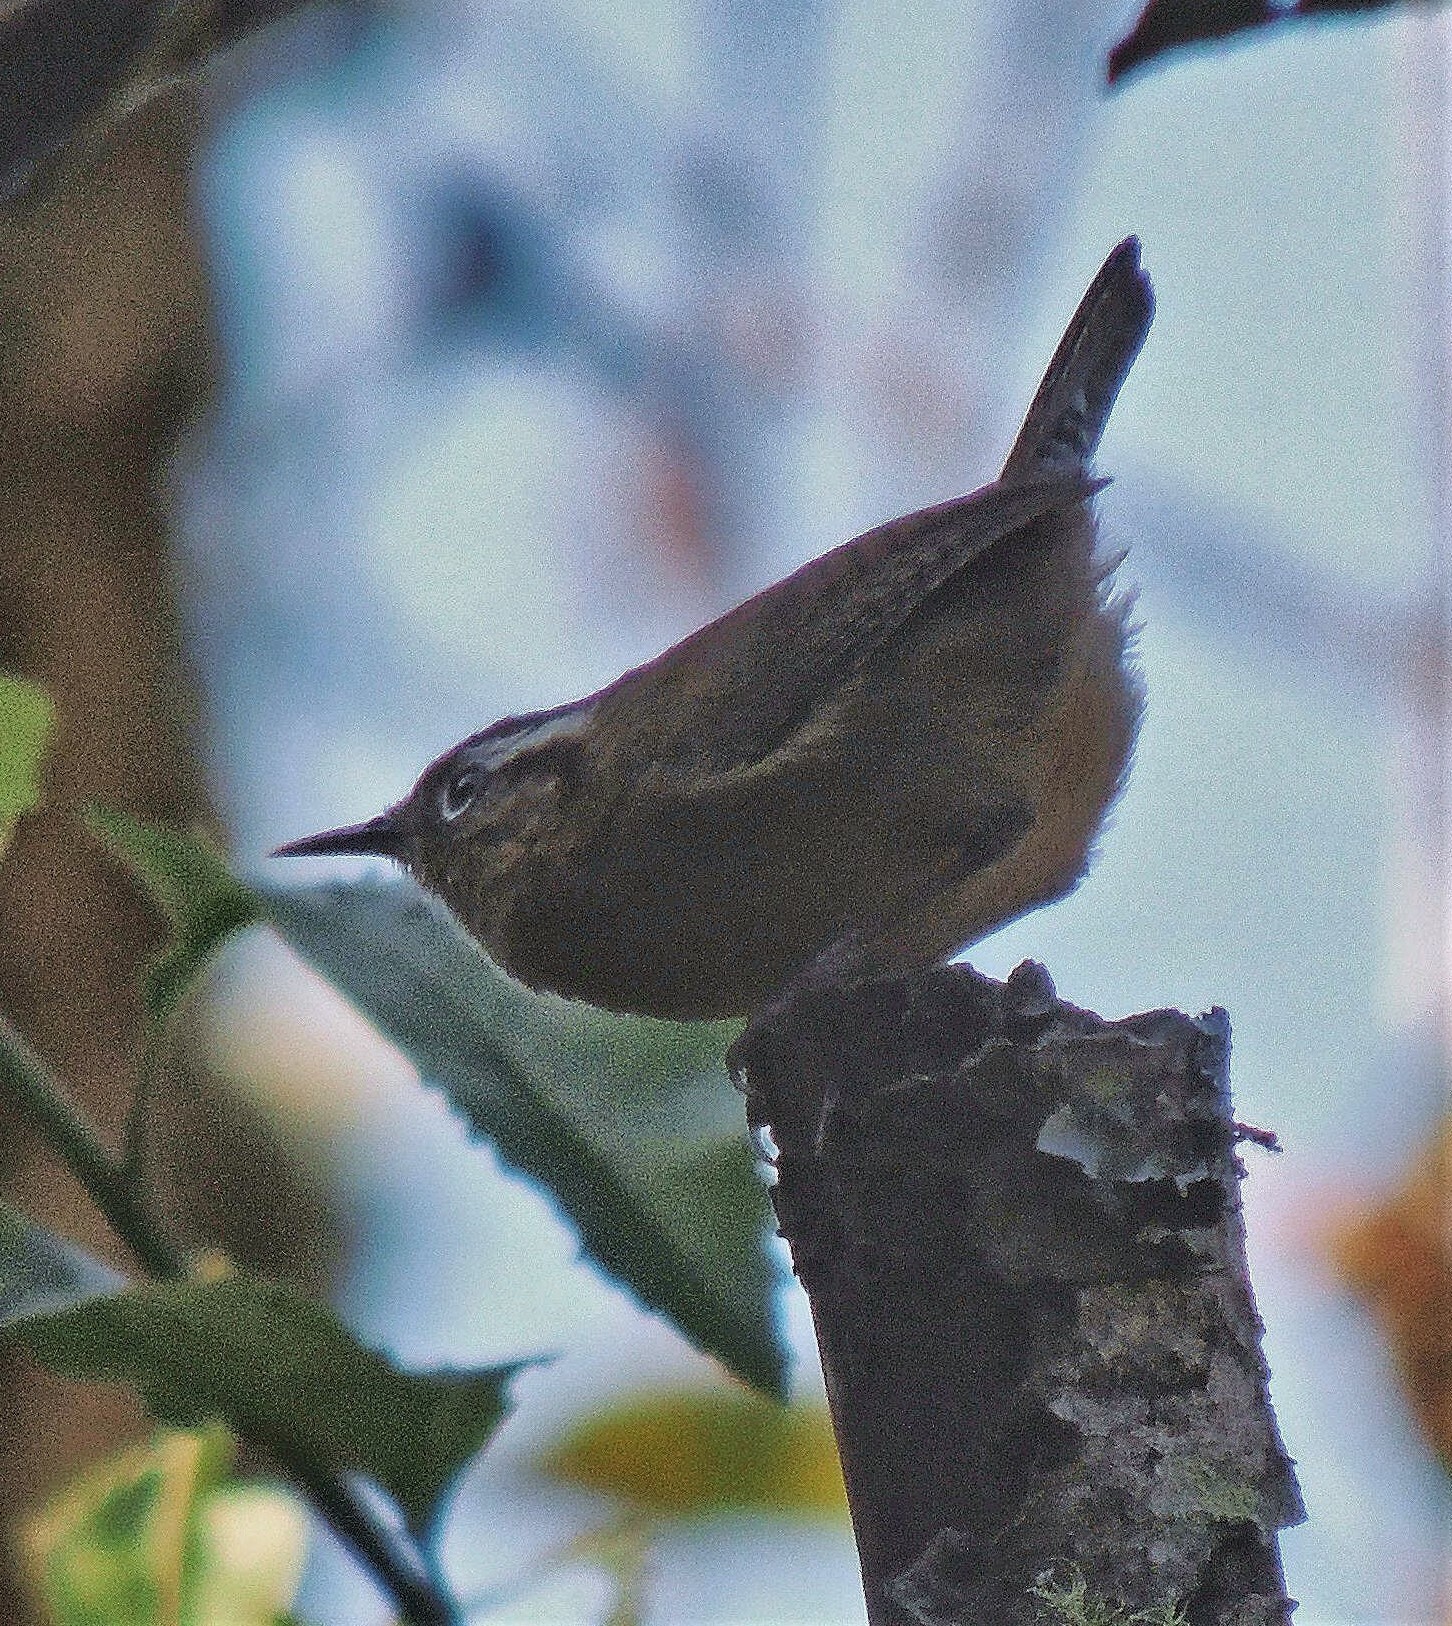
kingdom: Animalia
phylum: Chordata
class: Aves
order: Passeriformes
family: Troglodytidae
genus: Troglodytes
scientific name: Troglodytes solstitialis
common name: Mountain wren
